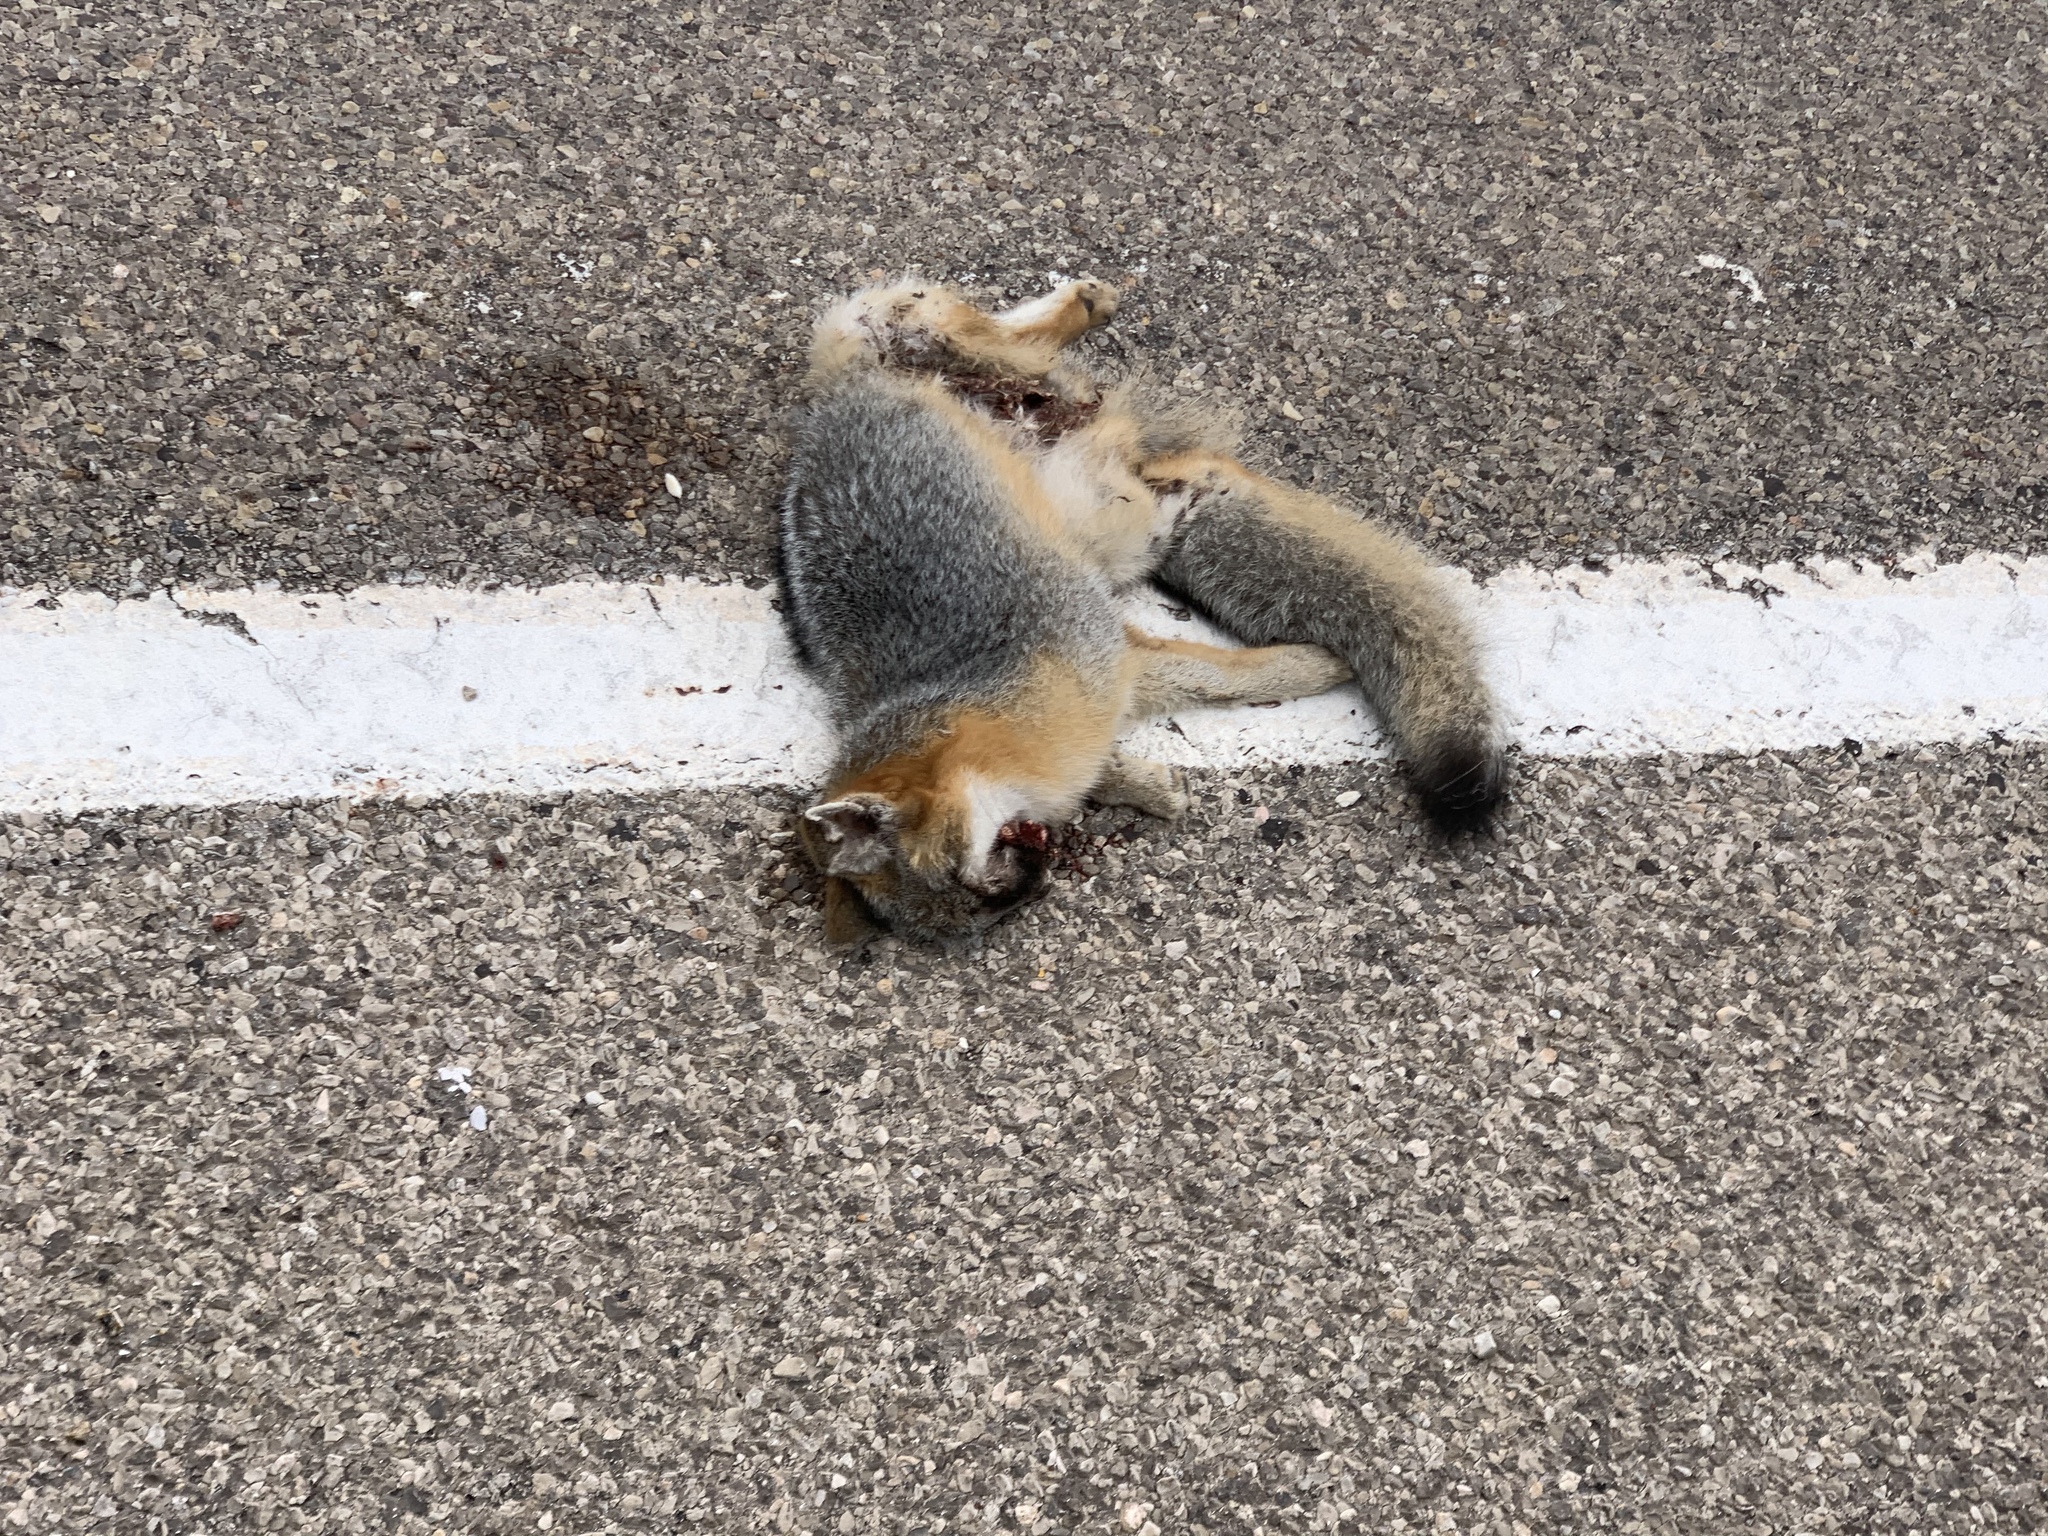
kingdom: Animalia
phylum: Chordata
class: Mammalia
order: Carnivora
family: Canidae
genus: Urocyon
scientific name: Urocyon cinereoargenteus
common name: Gray fox
